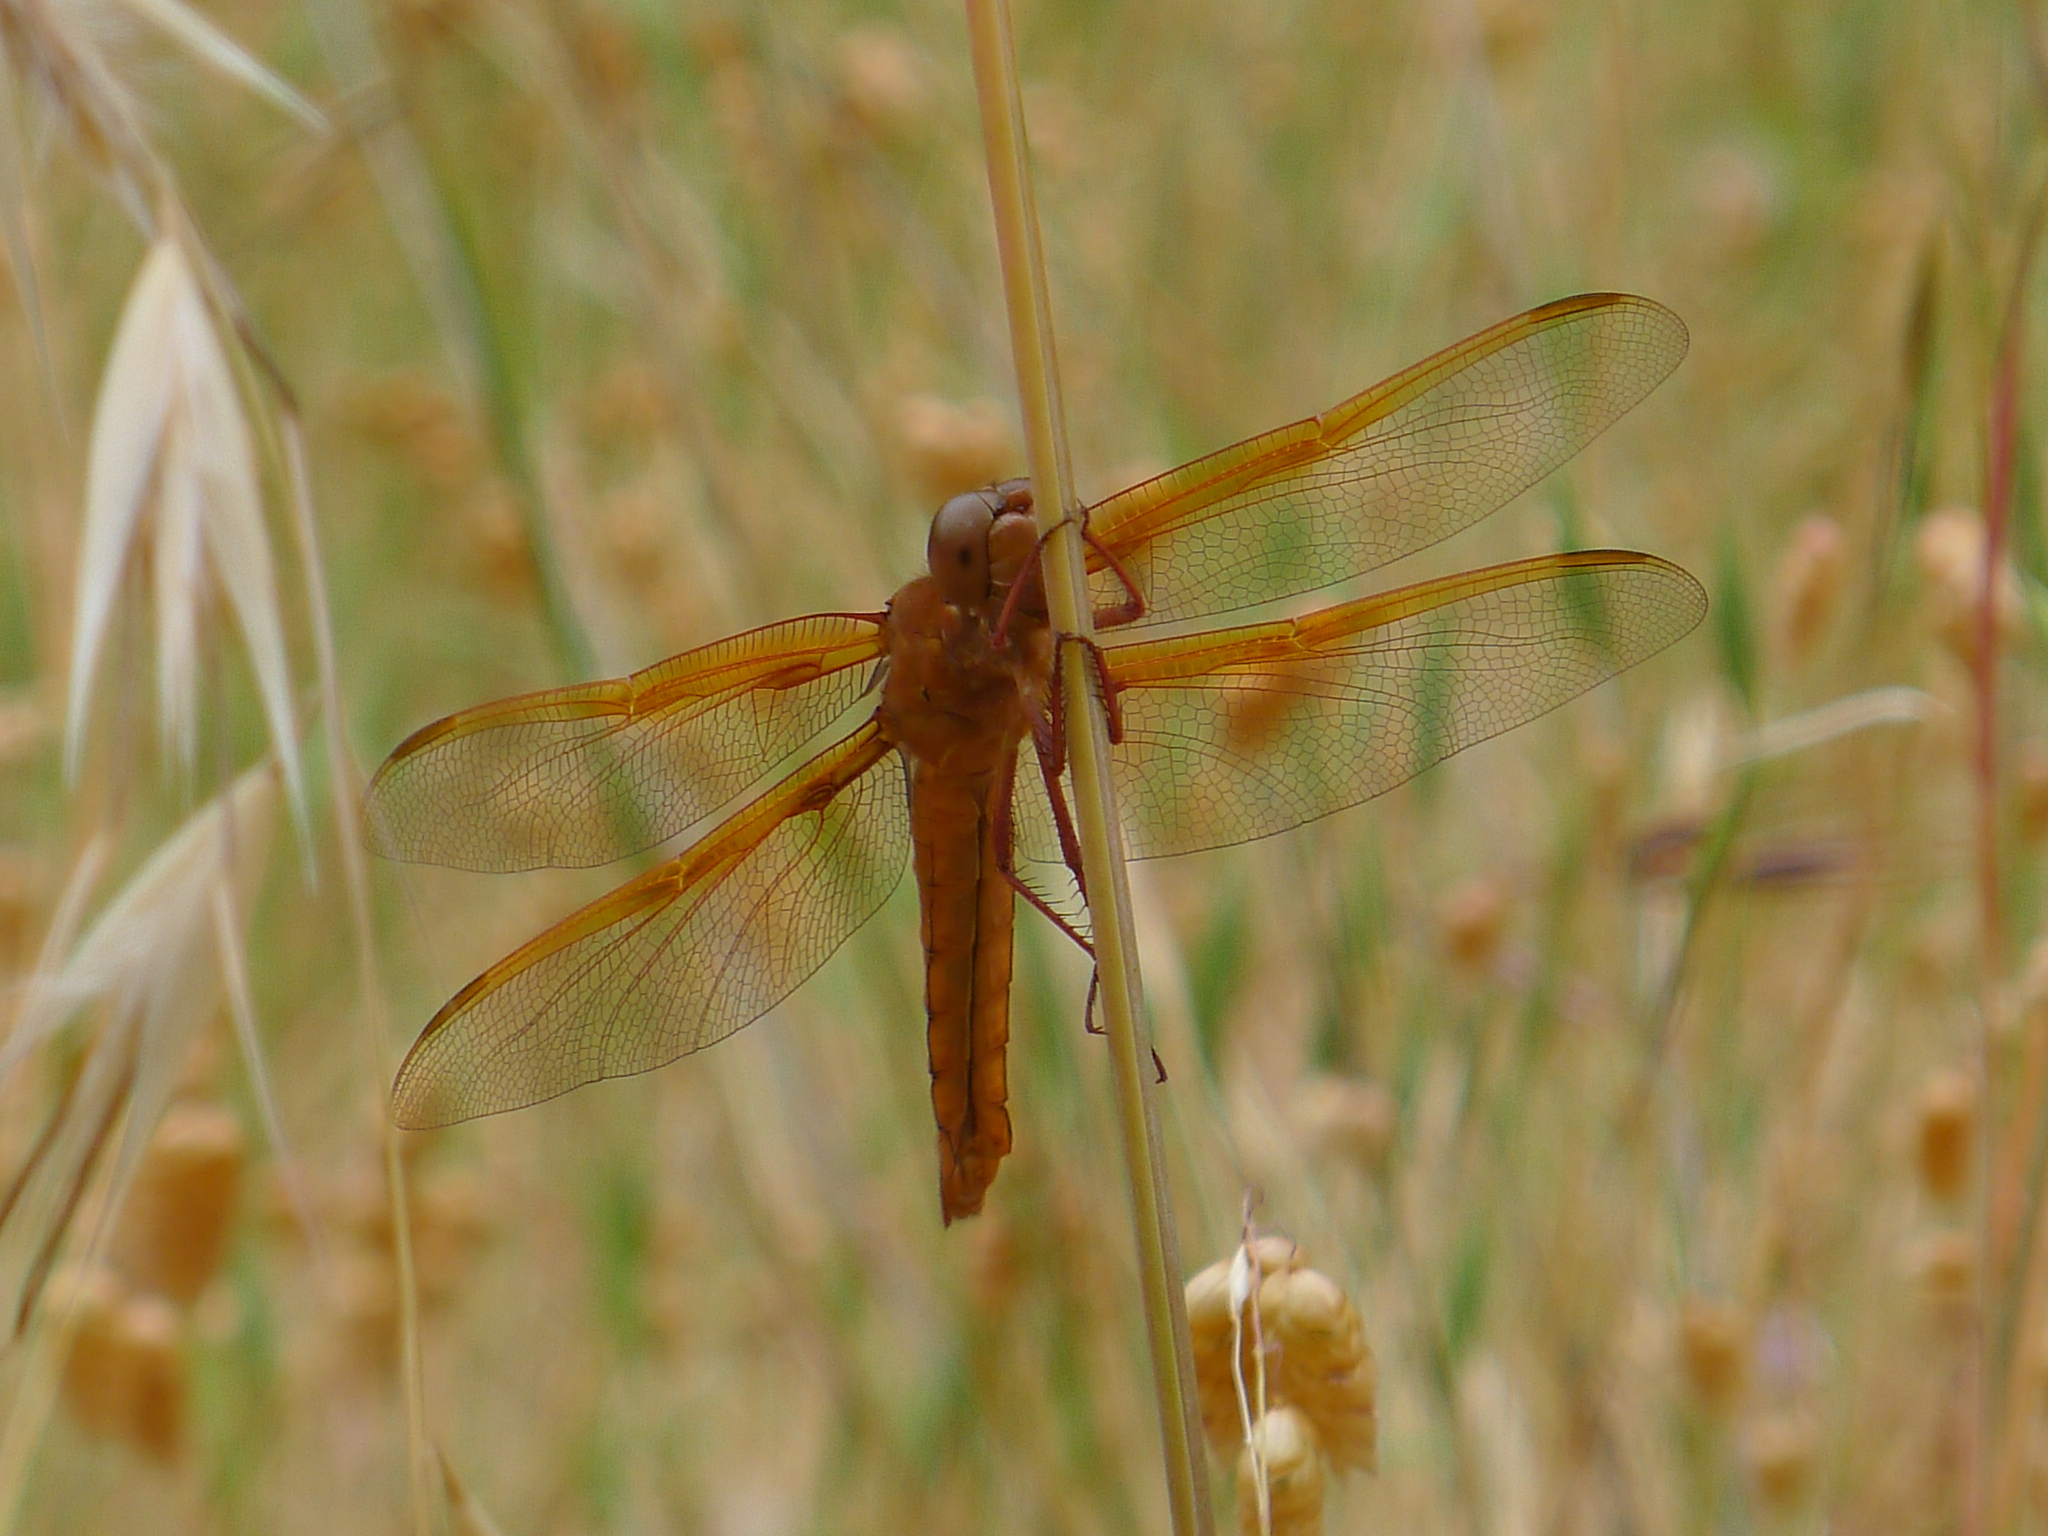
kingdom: Animalia
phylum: Arthropoda
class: Insecta
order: Odonata
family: Libellulidae
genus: Libellula
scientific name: Libellula saturata
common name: Flame skimmer
